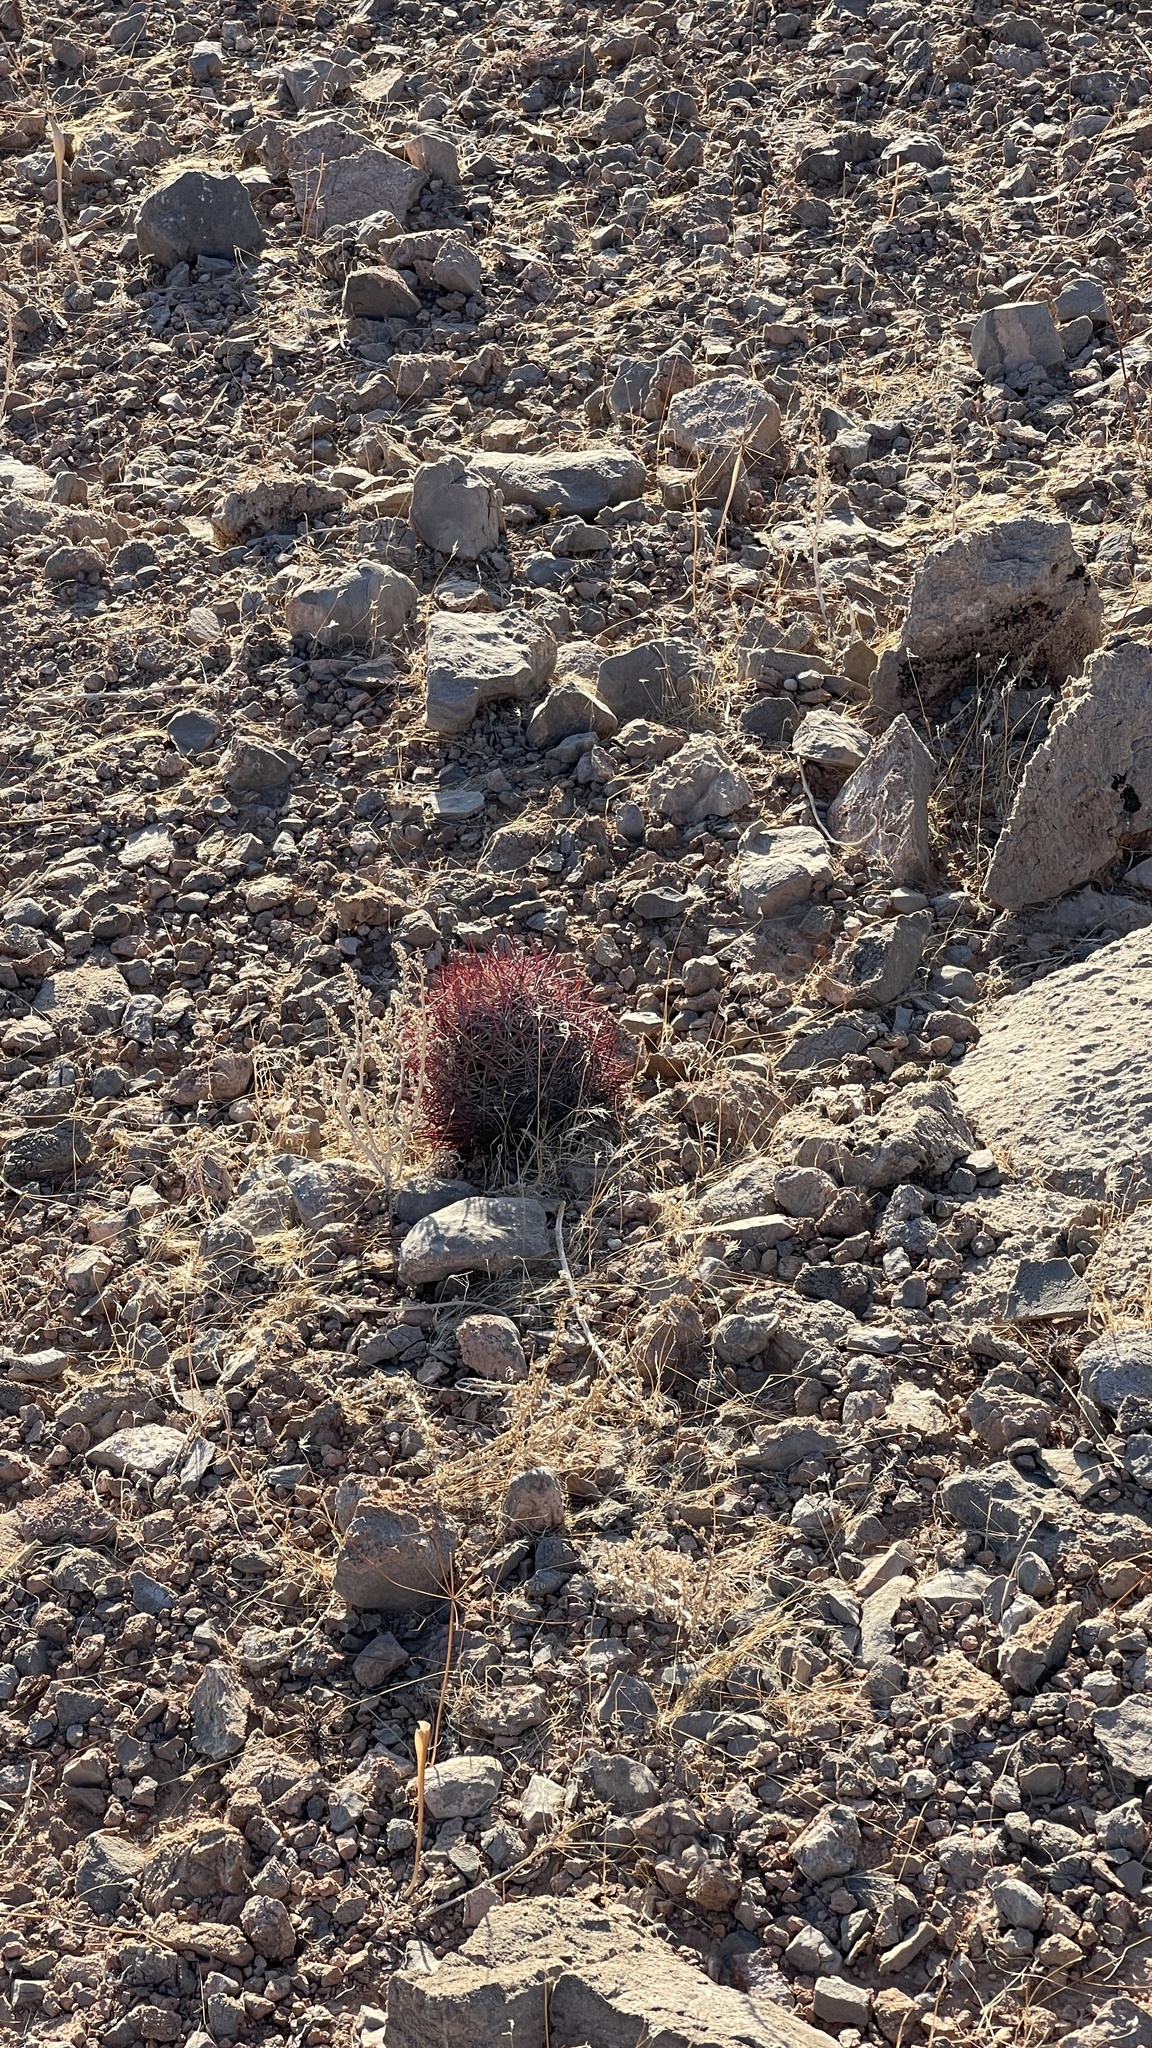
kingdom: Plantae
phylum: Tracheophyta
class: Magnoliopsida
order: Caryophyllales
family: Cactaceae
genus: Sclerocactus
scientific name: Sclerocactus johnsonii
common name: Eight-spine fishhook cactus
